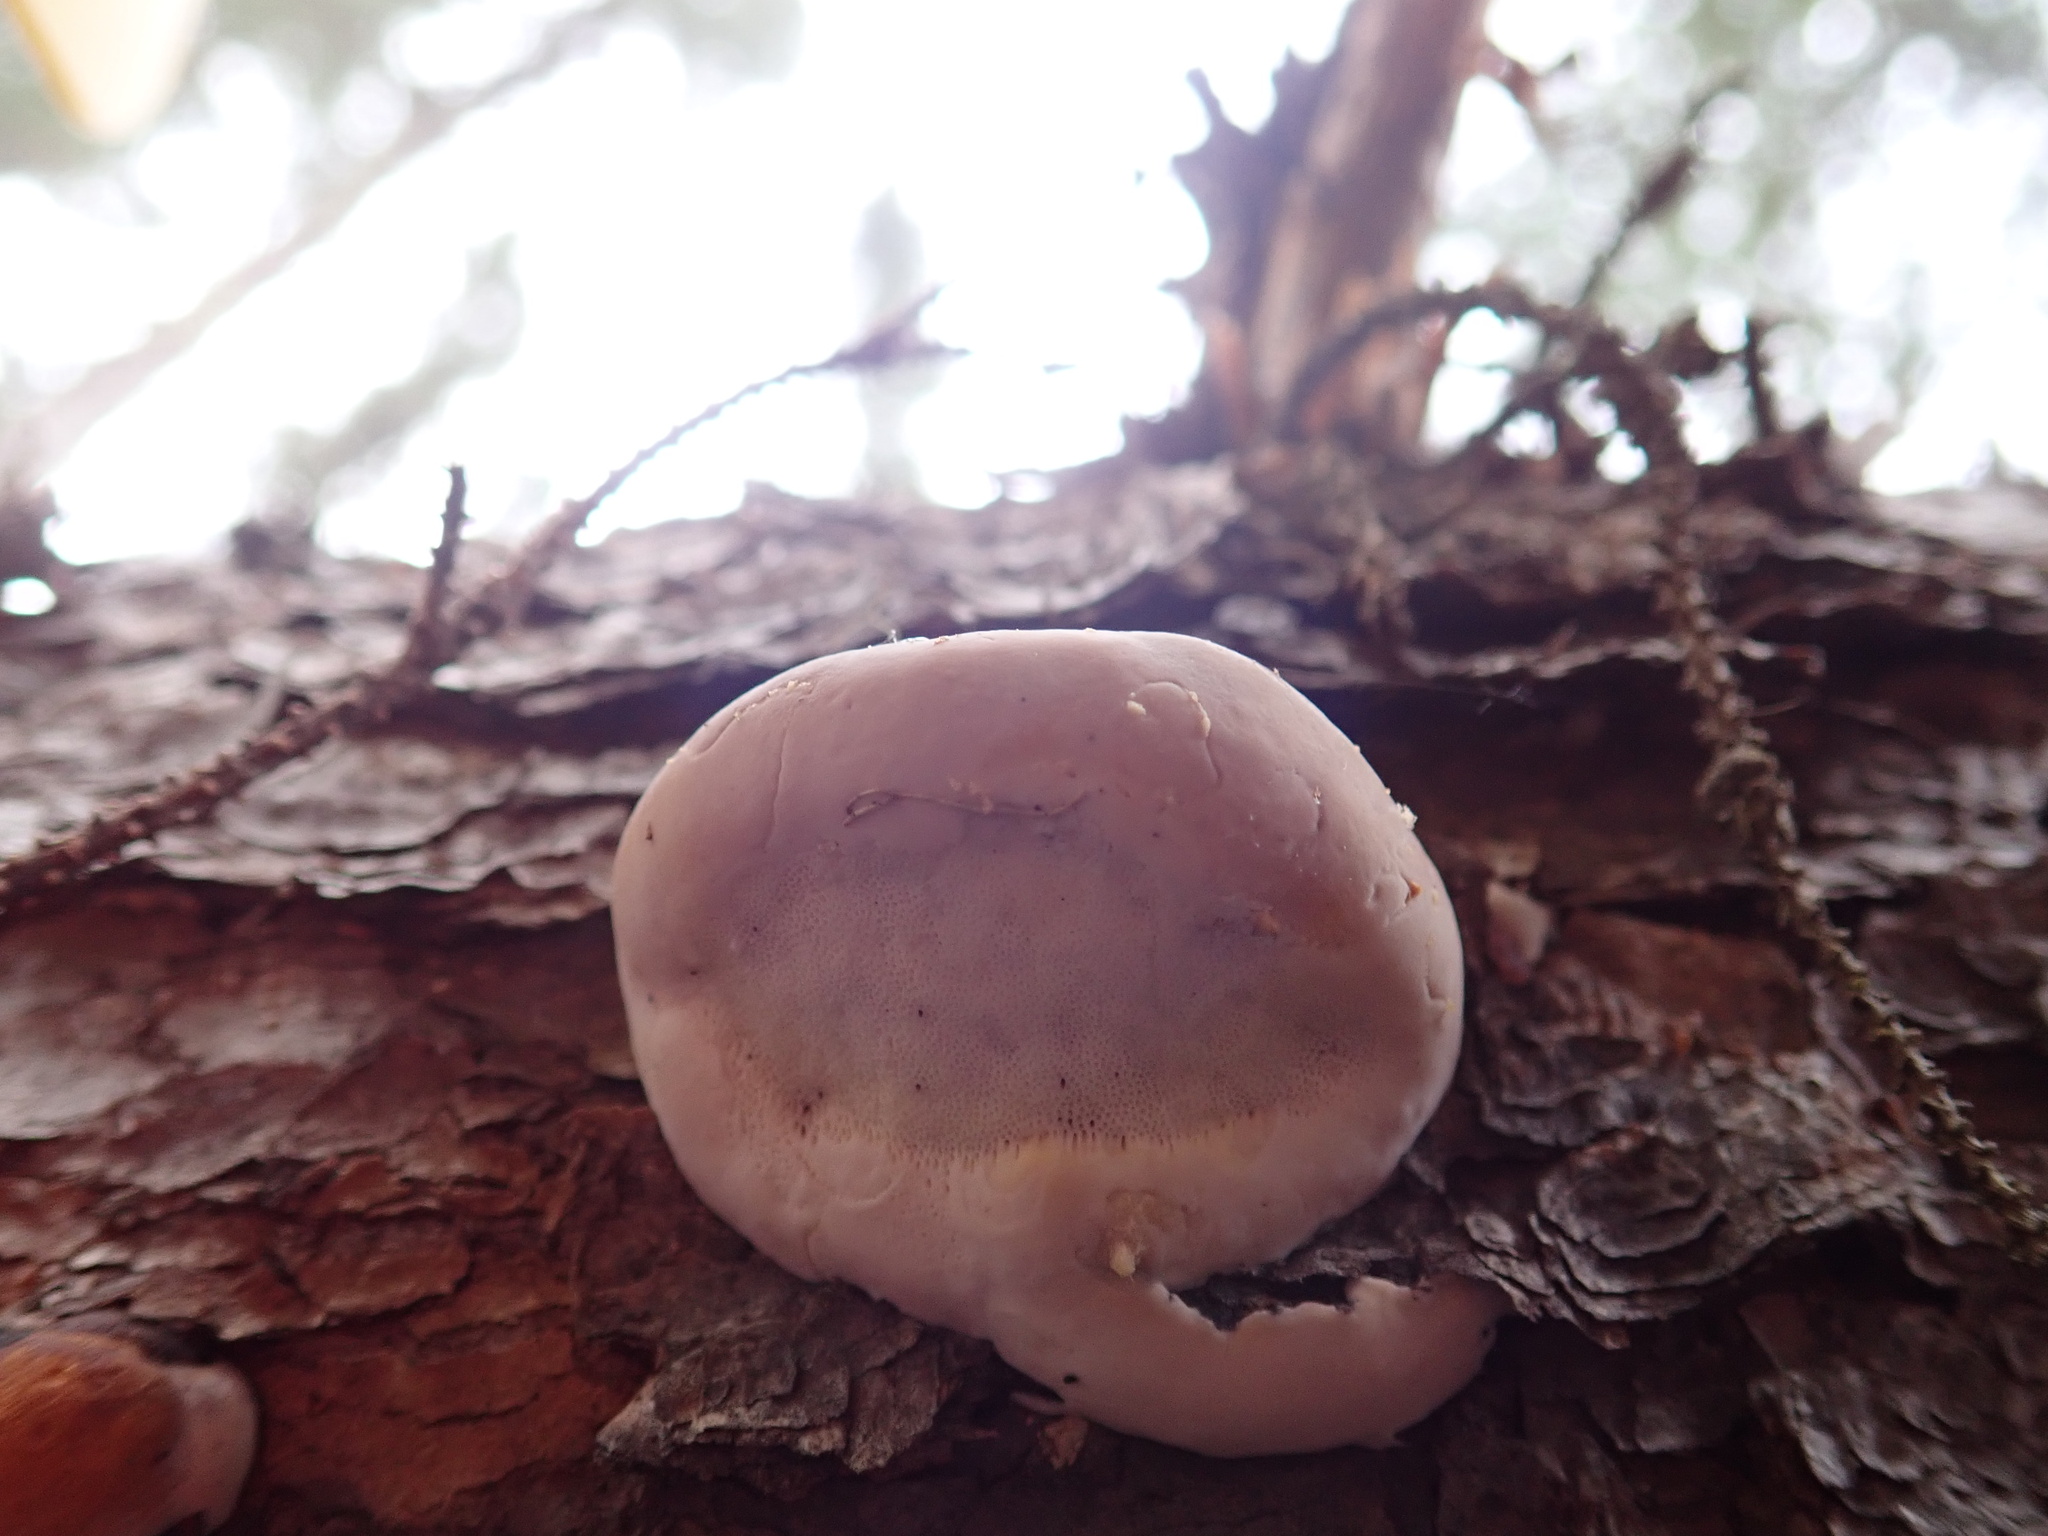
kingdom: Fungi
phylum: Basidiomycota
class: Agaricomycetes
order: Polyporales
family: Fomitopsidaceae
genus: Fomitopsis
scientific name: Fomitopsis mounceae
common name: Northern red belt
